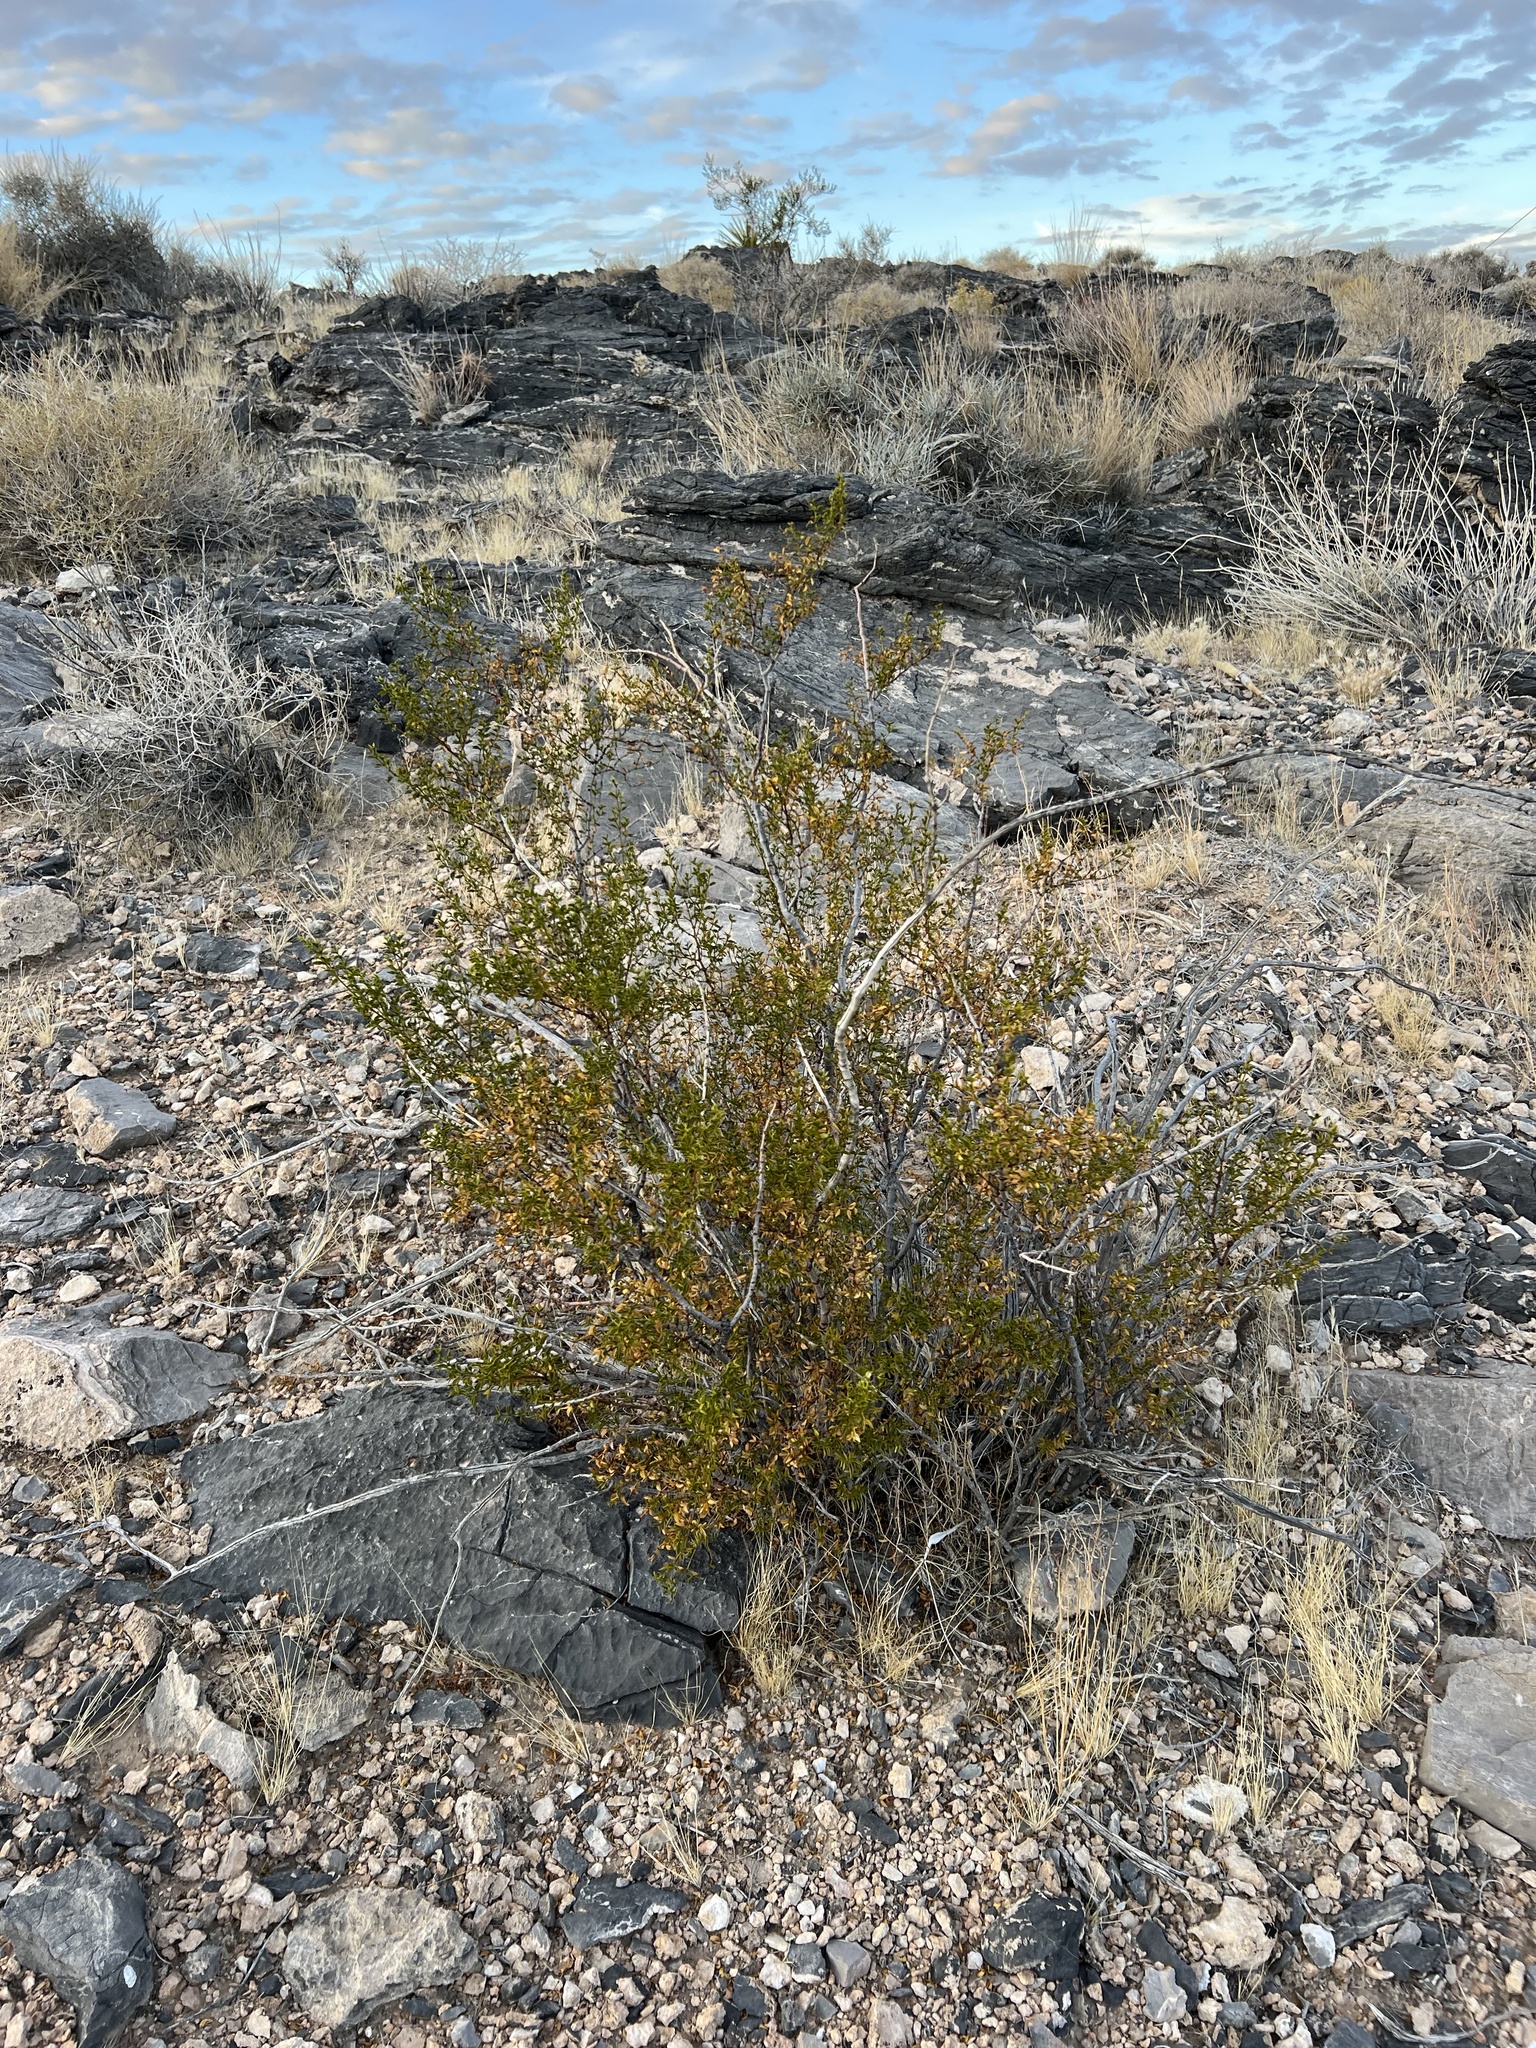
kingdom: Plantae
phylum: Tracheophyta
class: Magnoliopsida
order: Zygophyllales
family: Zygophyllaceae
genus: Larrea
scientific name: Larrea tridentata
